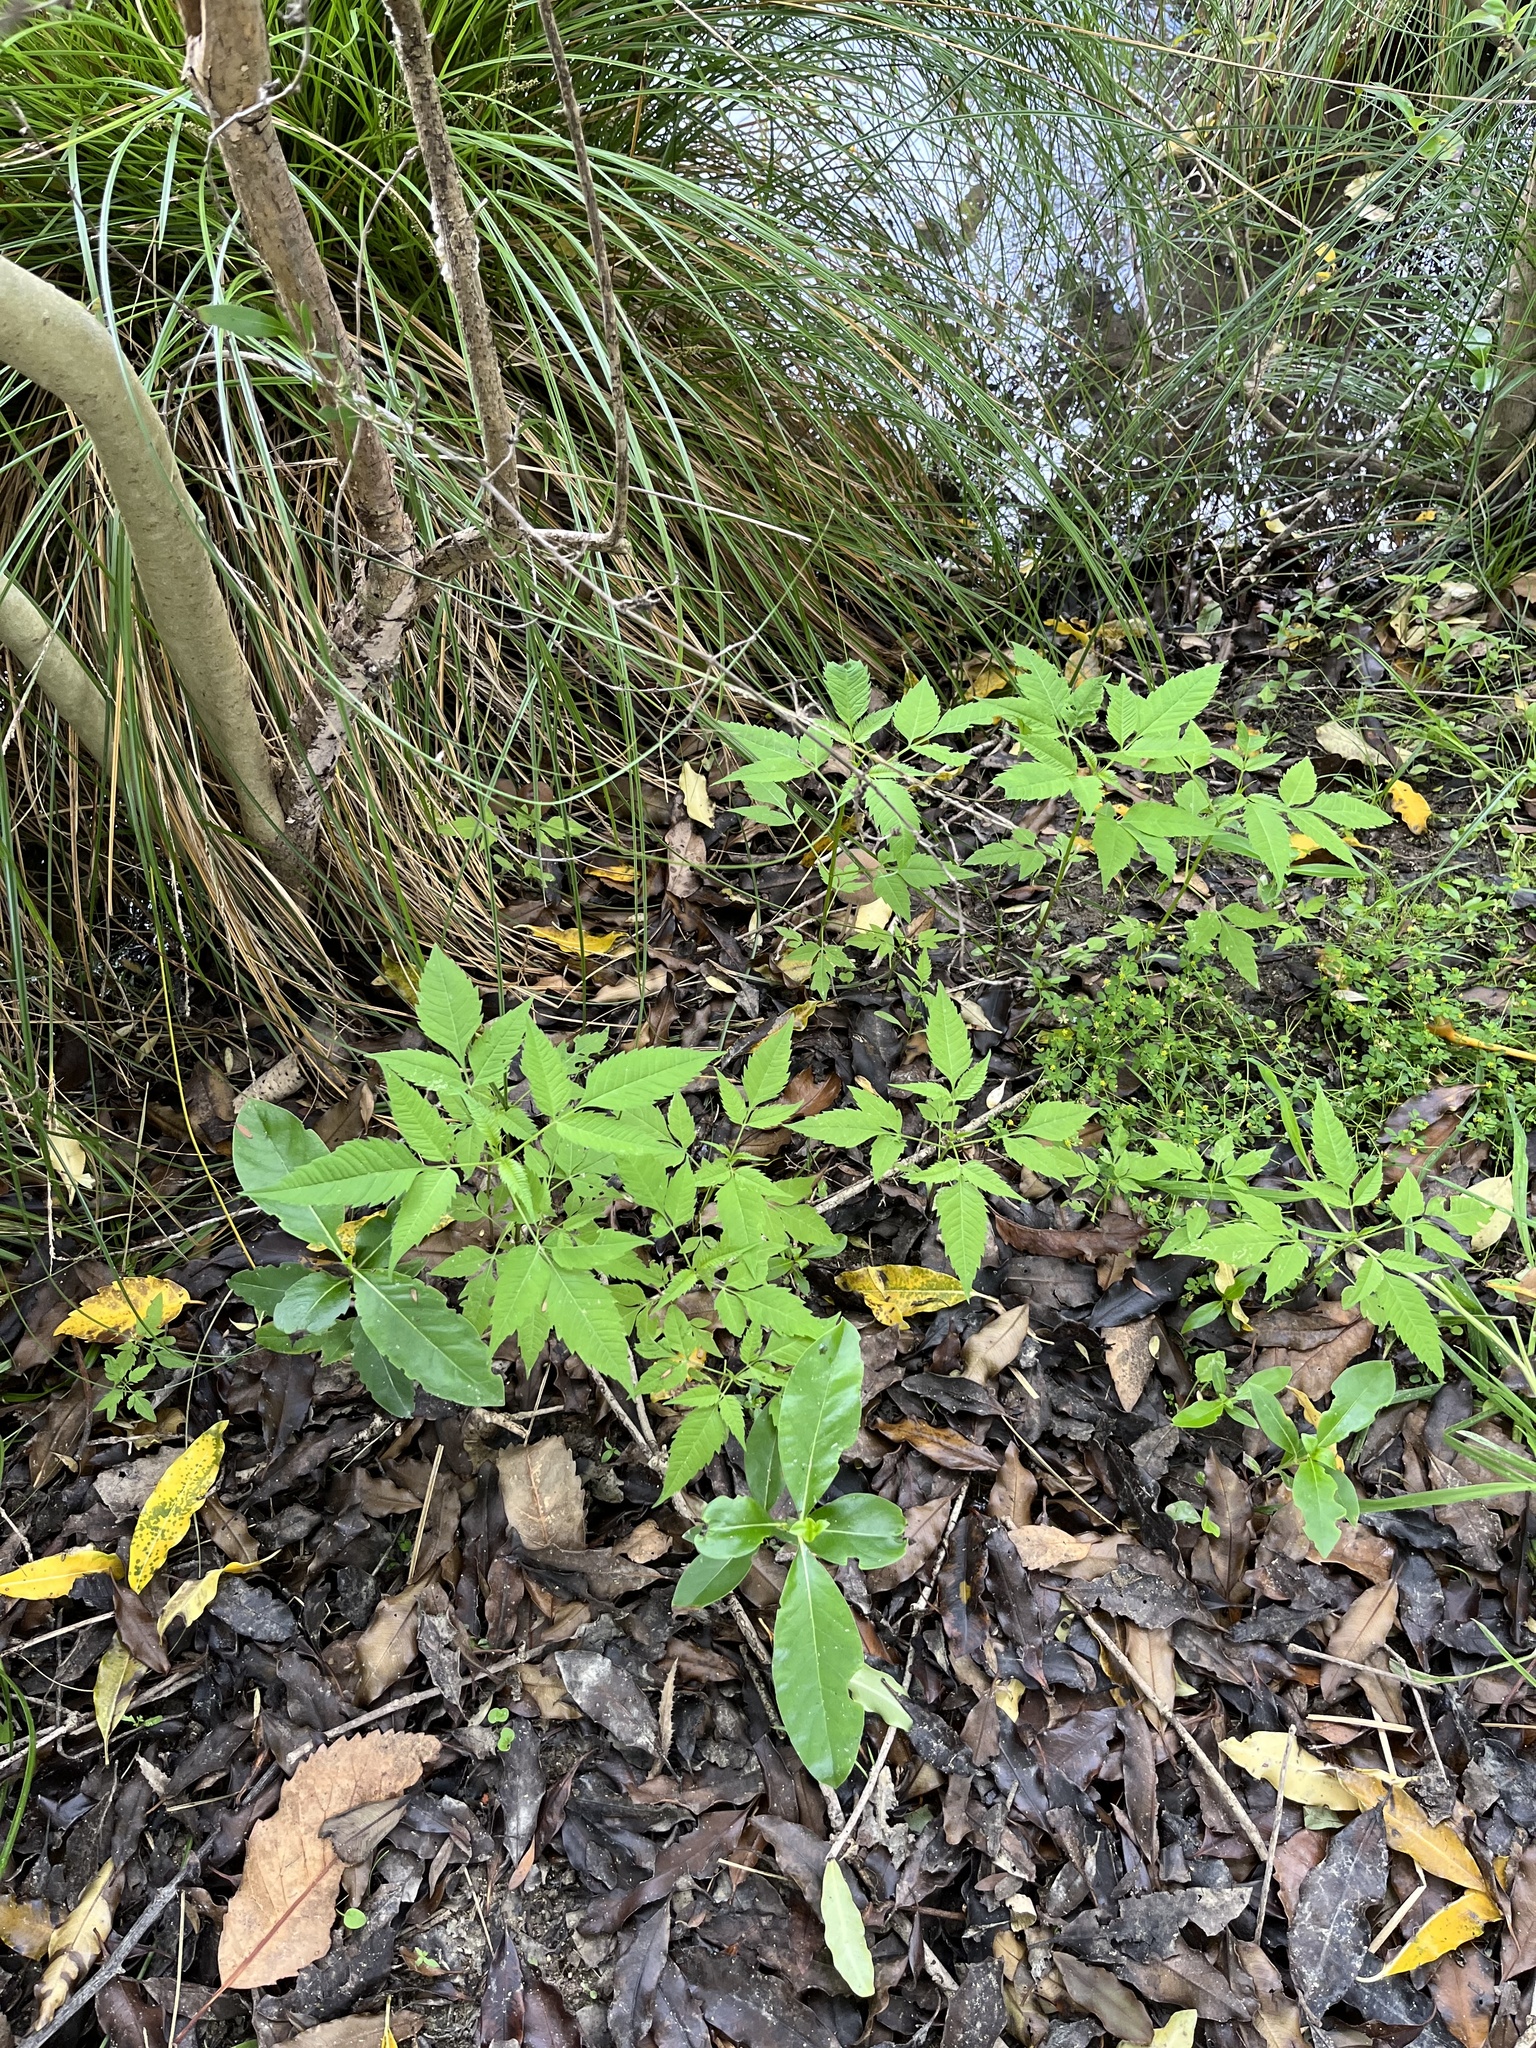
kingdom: Plantae
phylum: Tracheophyta
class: Magnoliopsida
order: Asterales
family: Asteraceae
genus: Bidens
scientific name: Bidens frondosa
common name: Beggarticks
